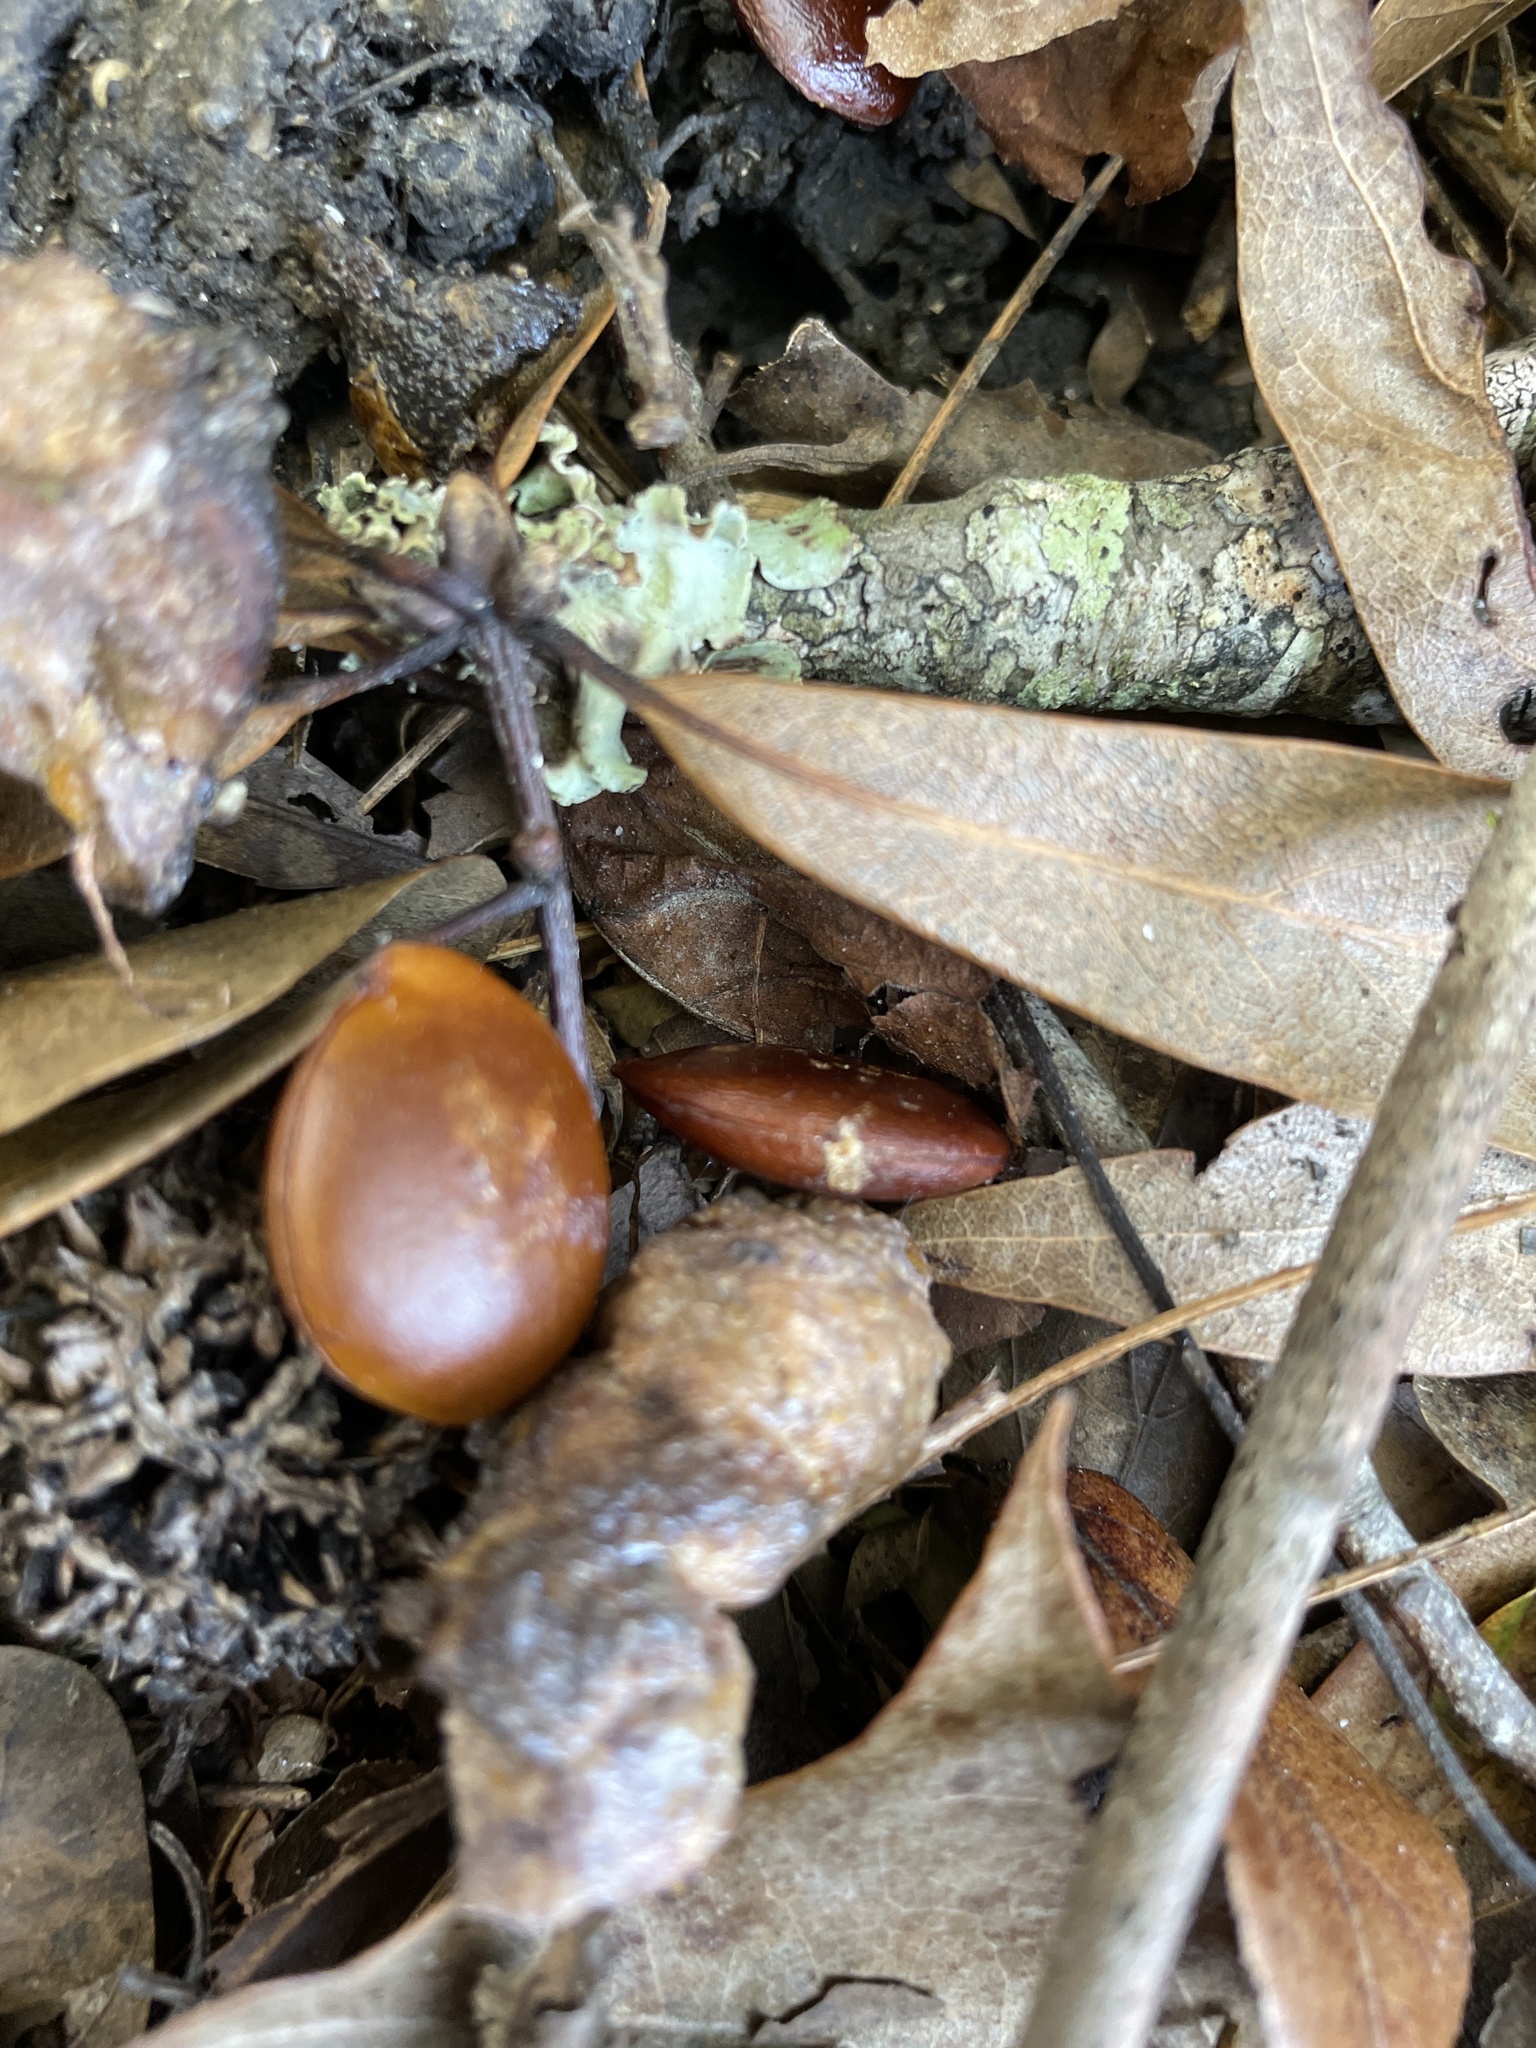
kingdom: Plantae
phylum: Tracheophyta
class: Magnoliopsida
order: Ericales
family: Ebenaceae
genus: Diospyros
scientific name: Diospyros virginiana
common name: Persimmon
